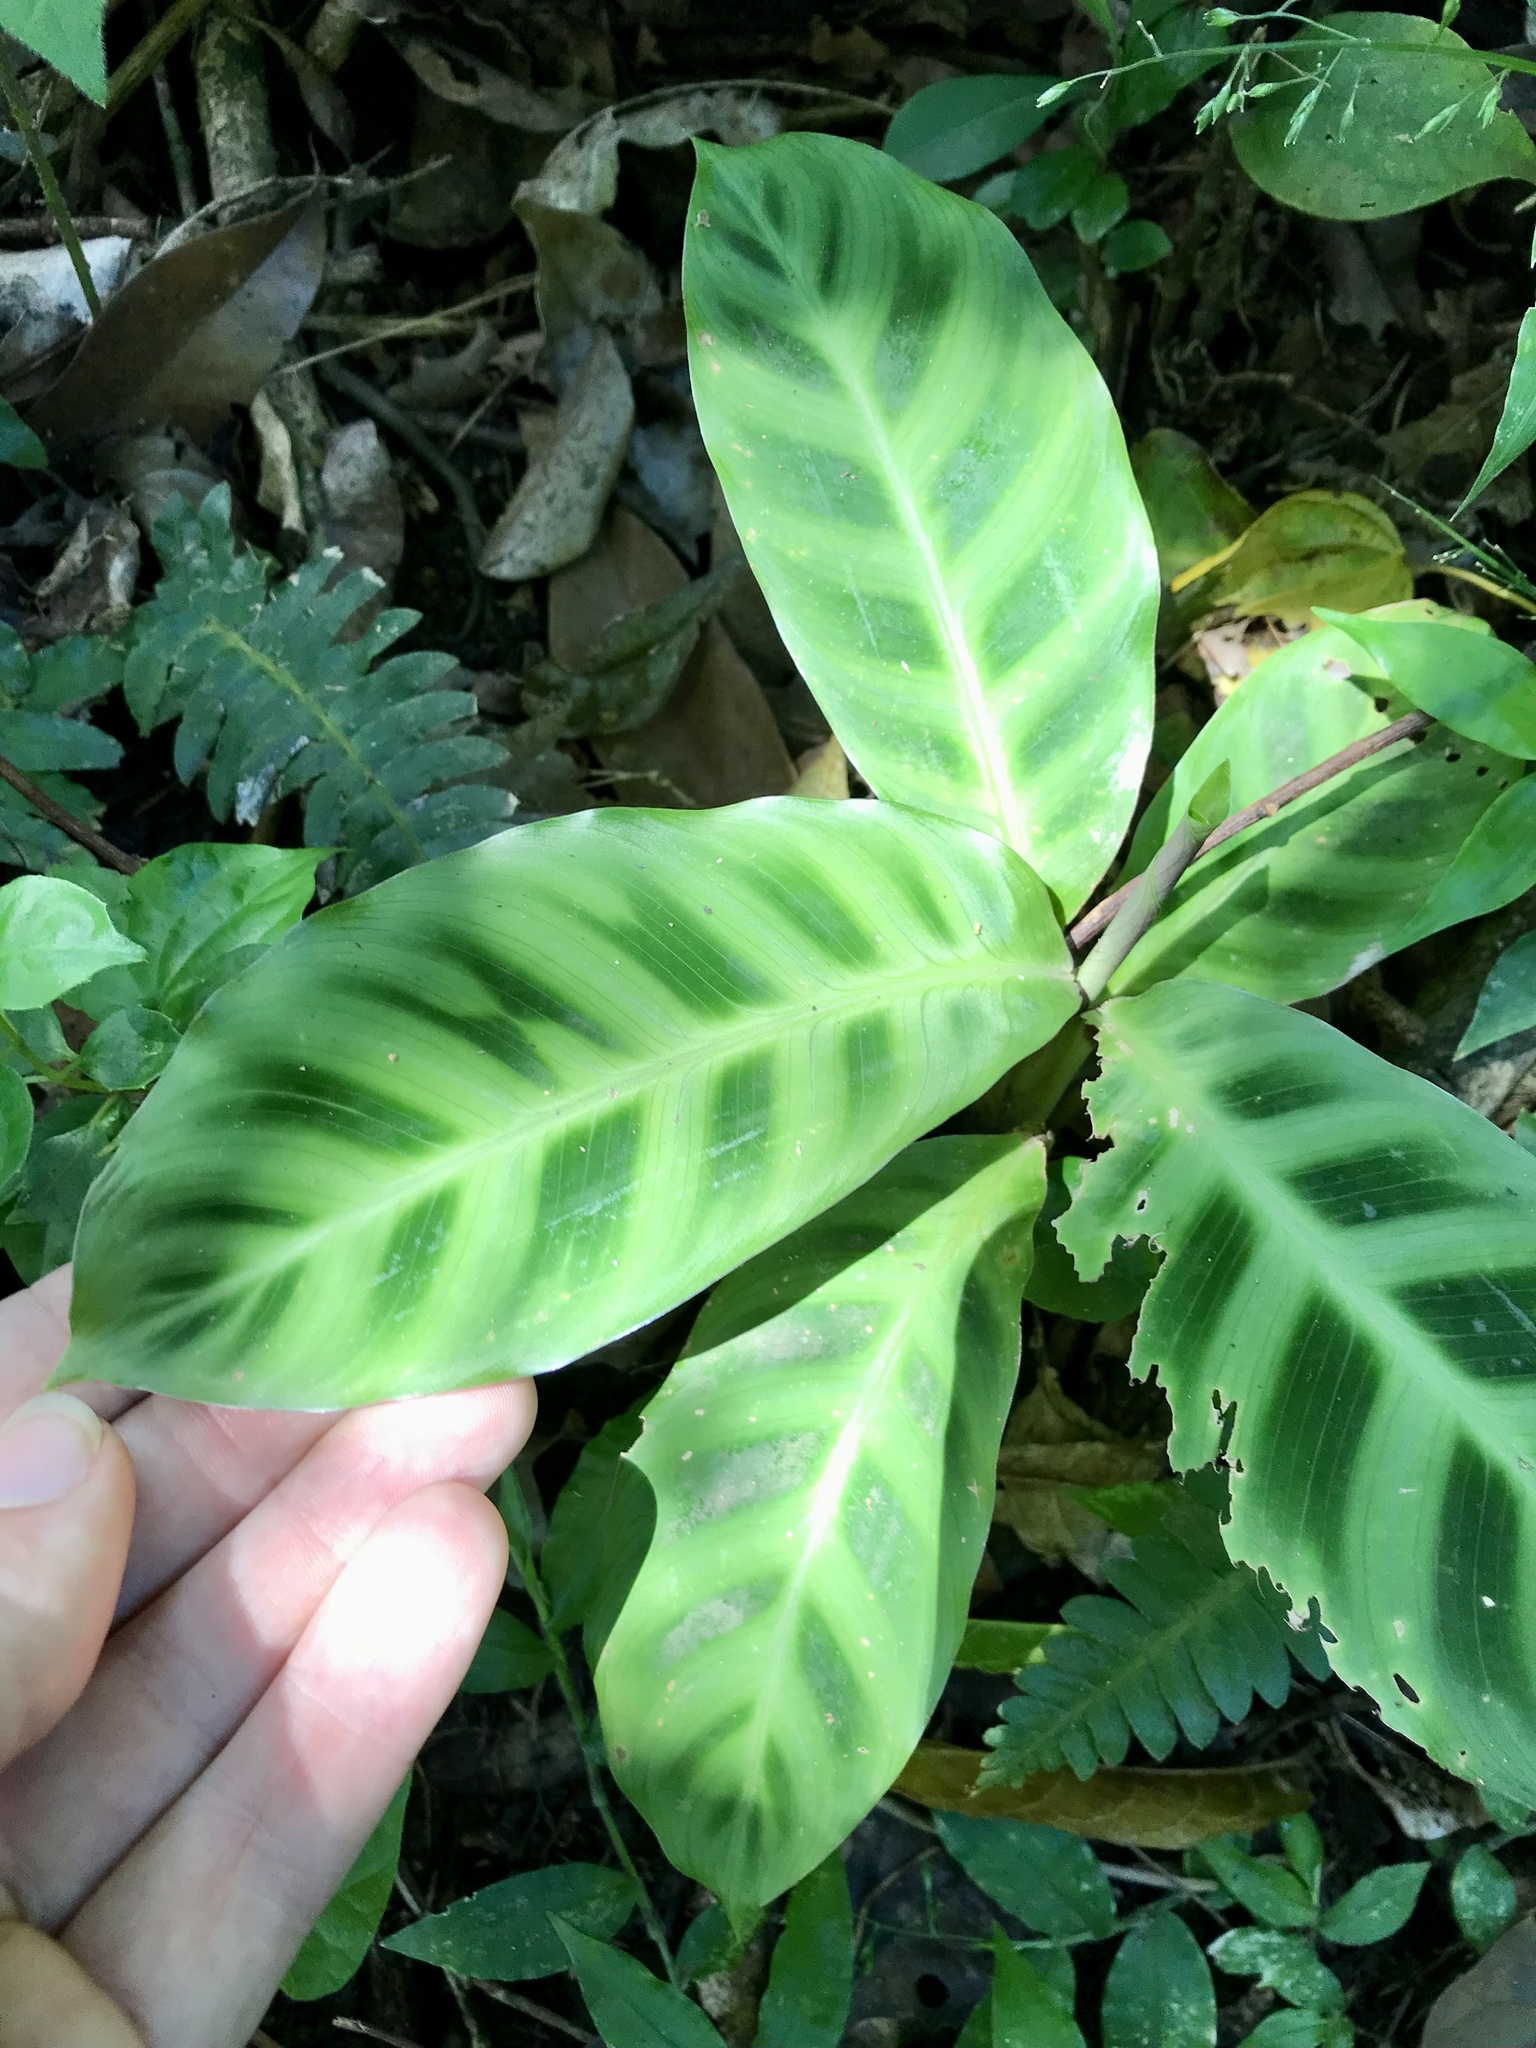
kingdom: Plantae
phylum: Tracheophyta
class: Liliopsida
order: Zingiberales
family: Marantaceae
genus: Goeppertia
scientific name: Goeppertia zebrina
